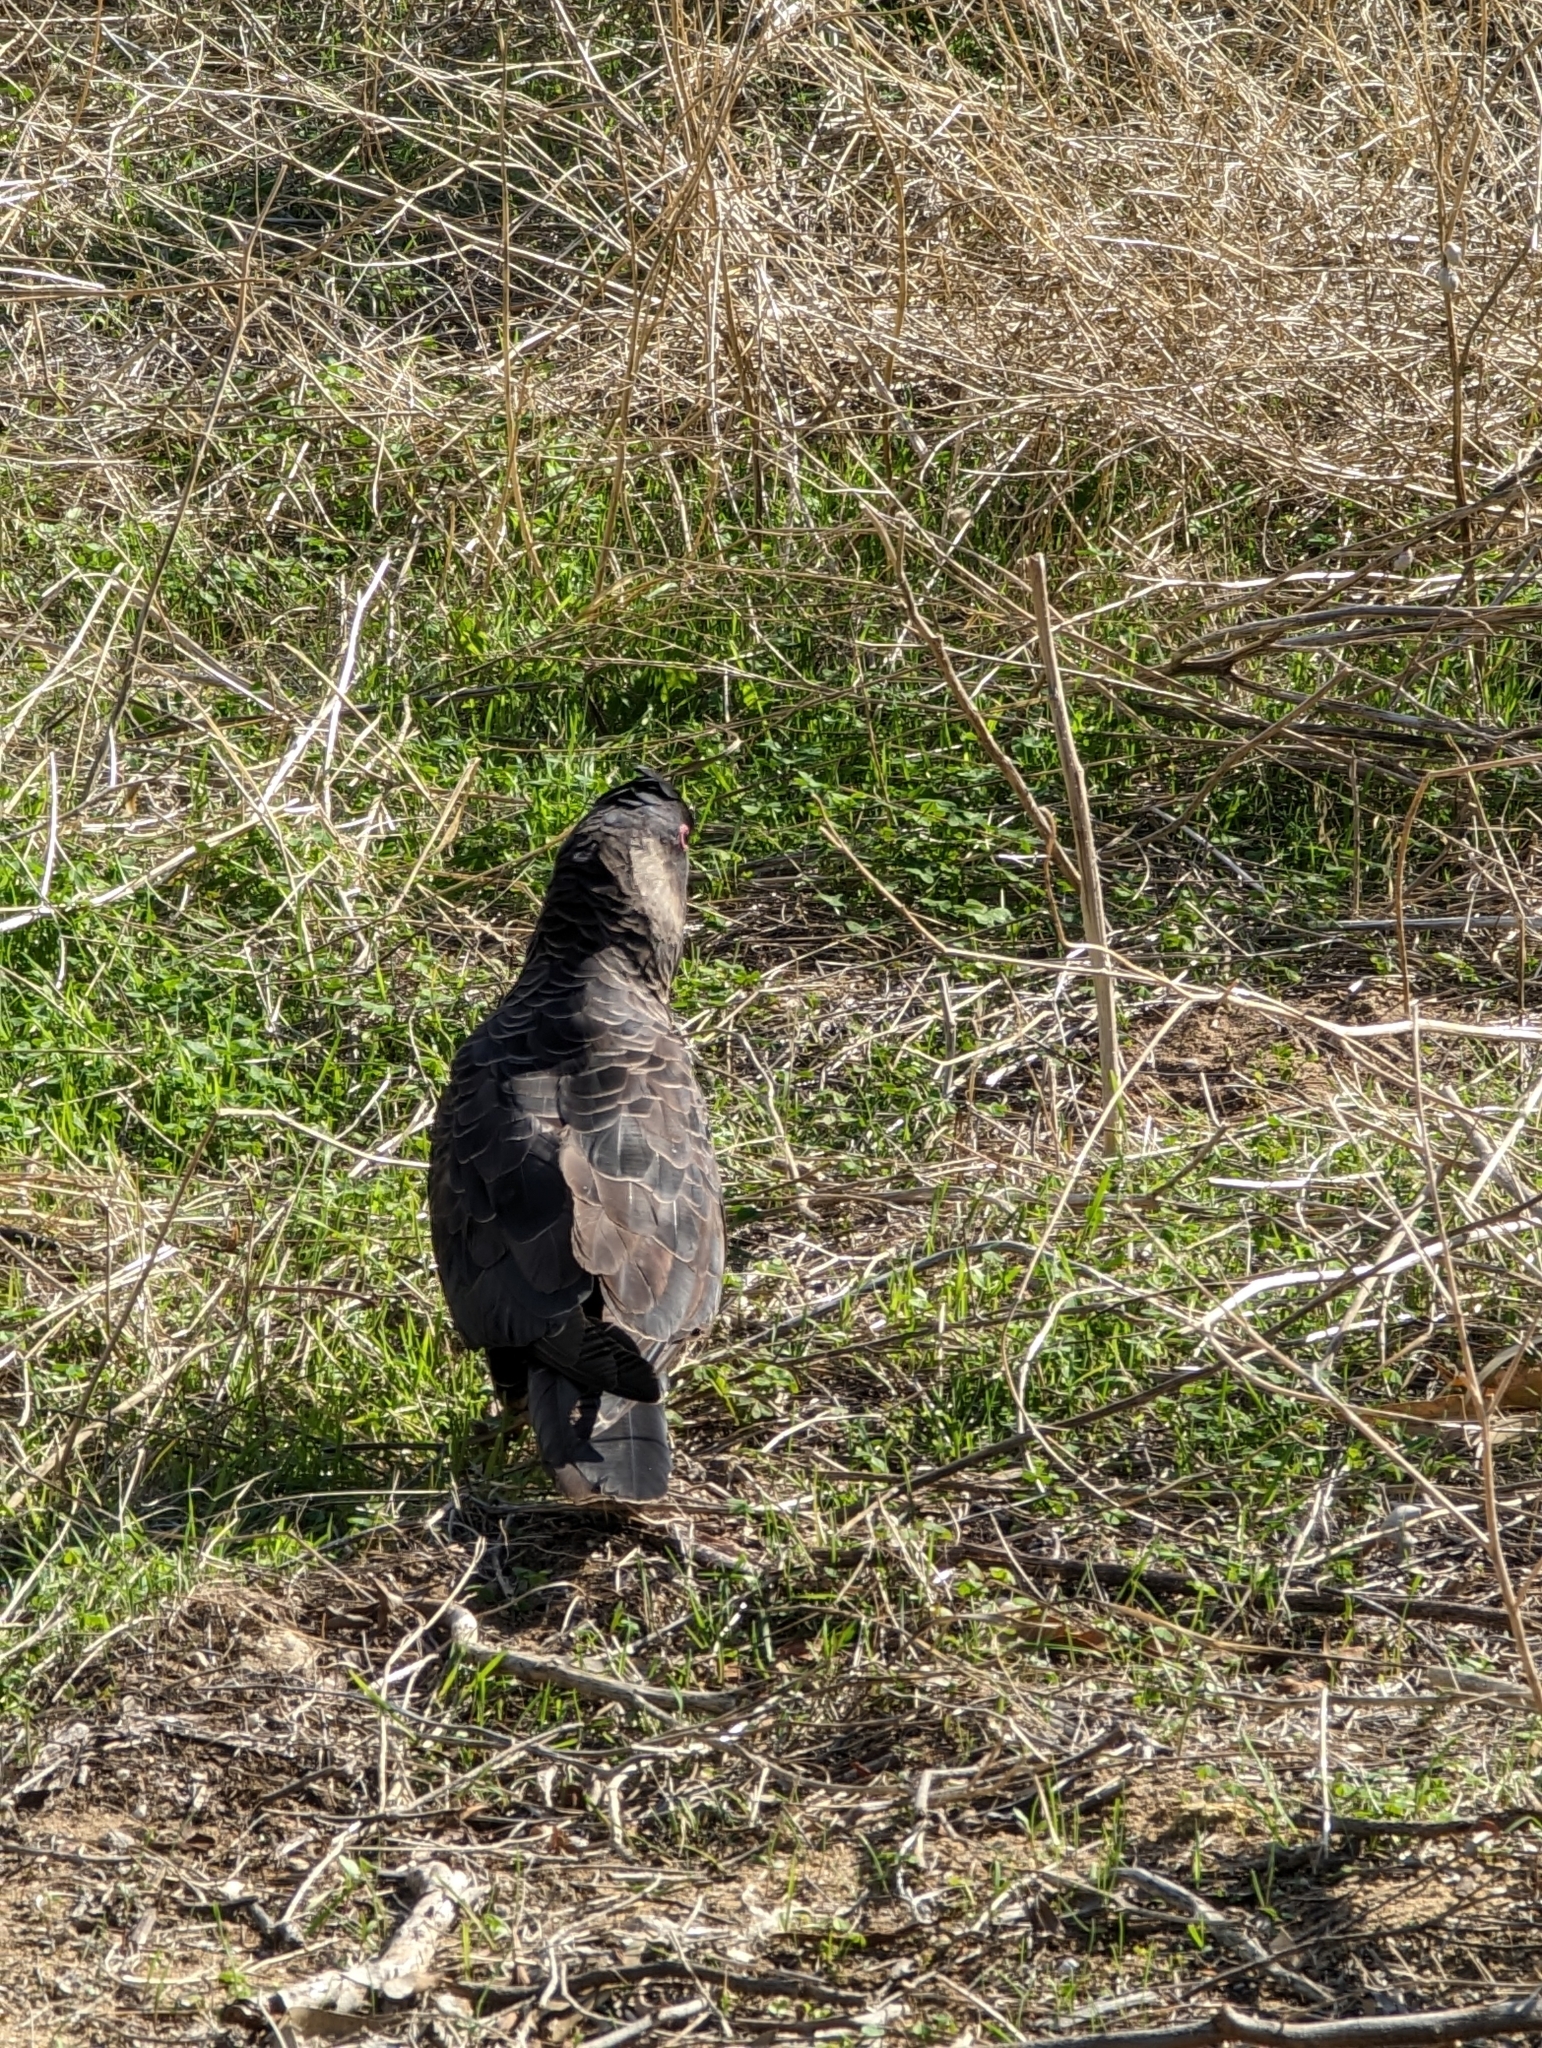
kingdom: Animalia
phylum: Chordata
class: Aves
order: Psittaciformes
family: Cacatuidae
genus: Zanda
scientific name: Zanda latirostris
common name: Short-billed black-cockatoo
